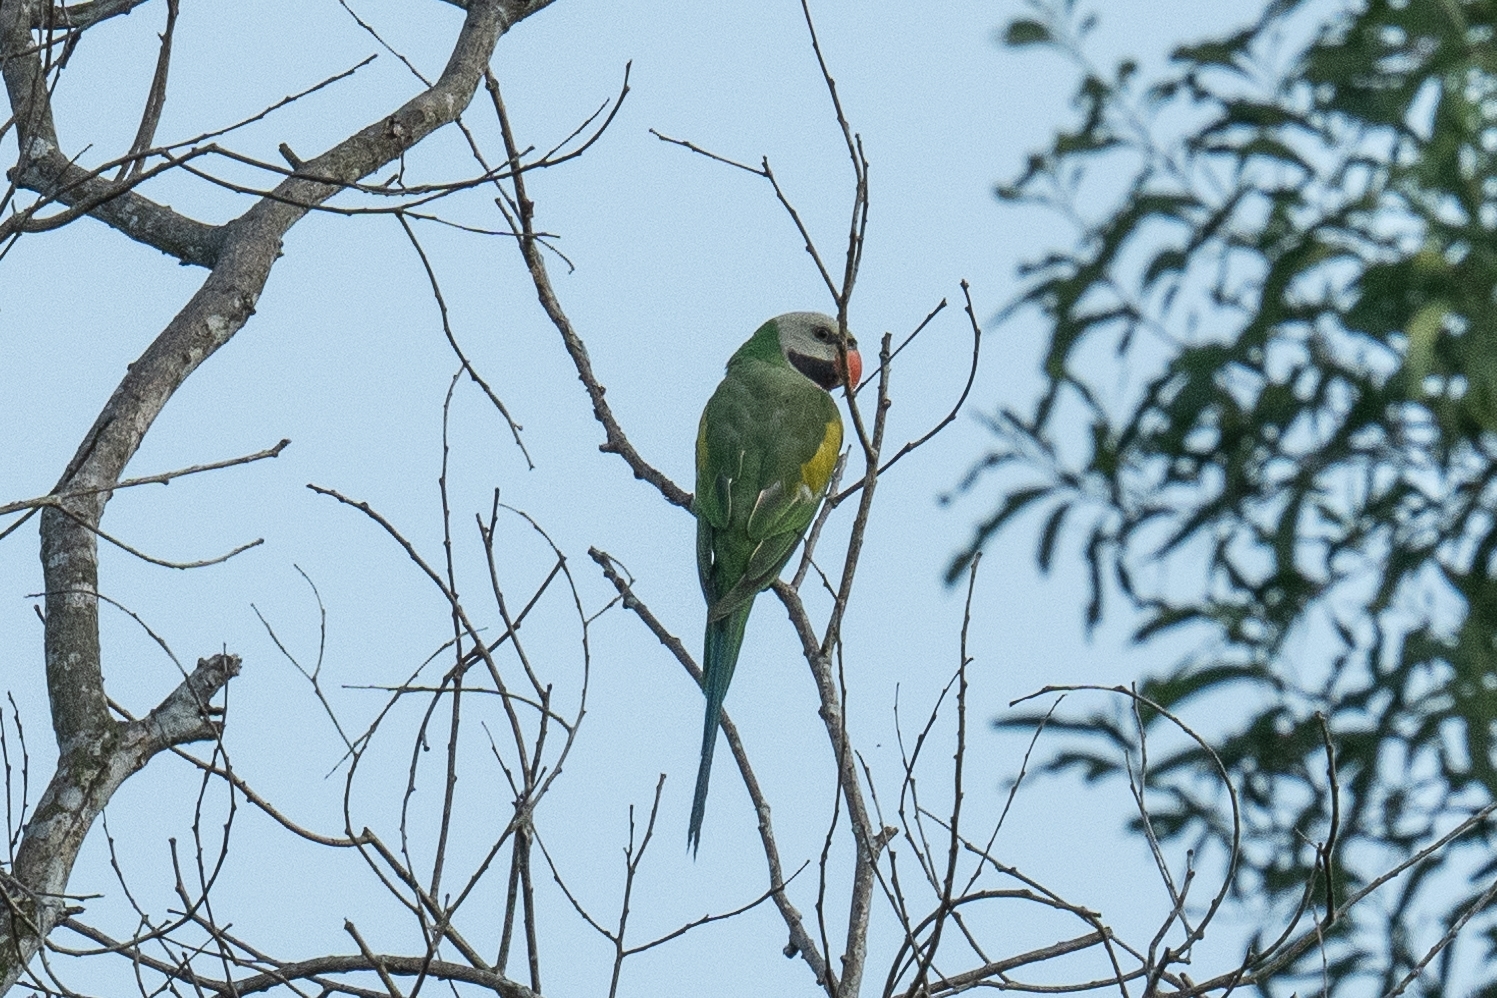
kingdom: Animalia
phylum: Chordata
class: Aves
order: Psittaciformes
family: Psittacidae
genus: Psittacula
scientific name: Psittacula alexandri
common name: Red-breasted parakeet
